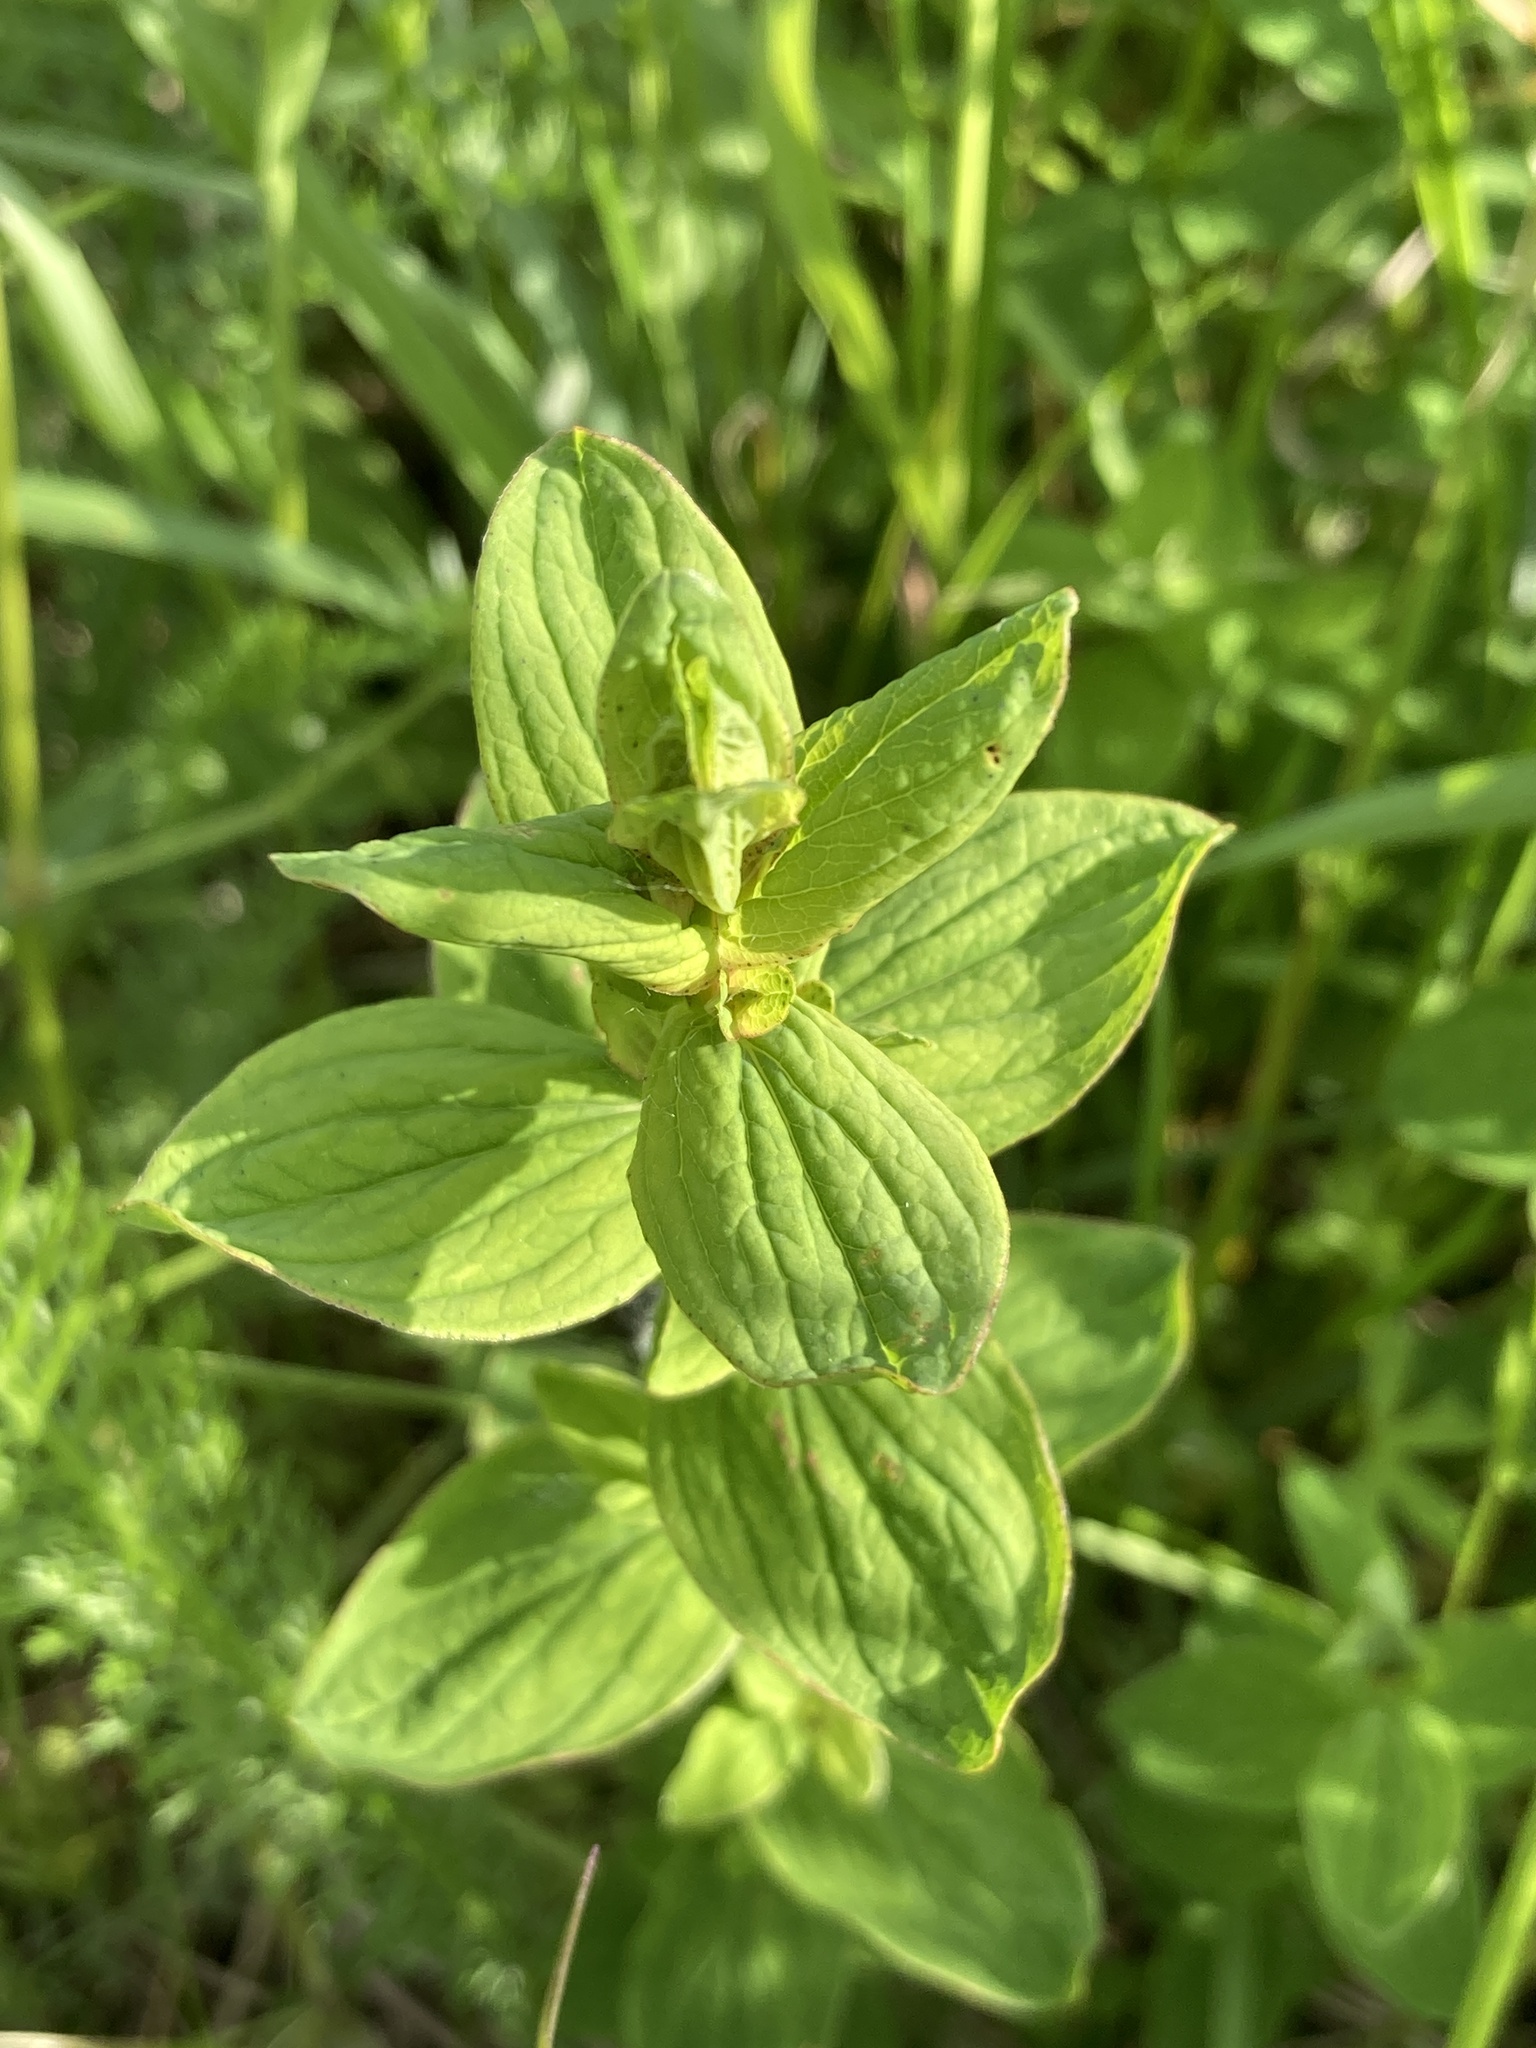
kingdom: Plantae
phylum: Tracheophyta
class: Magnoliopsida
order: Malpighiales
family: Hypericaceae
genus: Hypericum
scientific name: Hypericum maculatum
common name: Imperforate st. john's-wort
